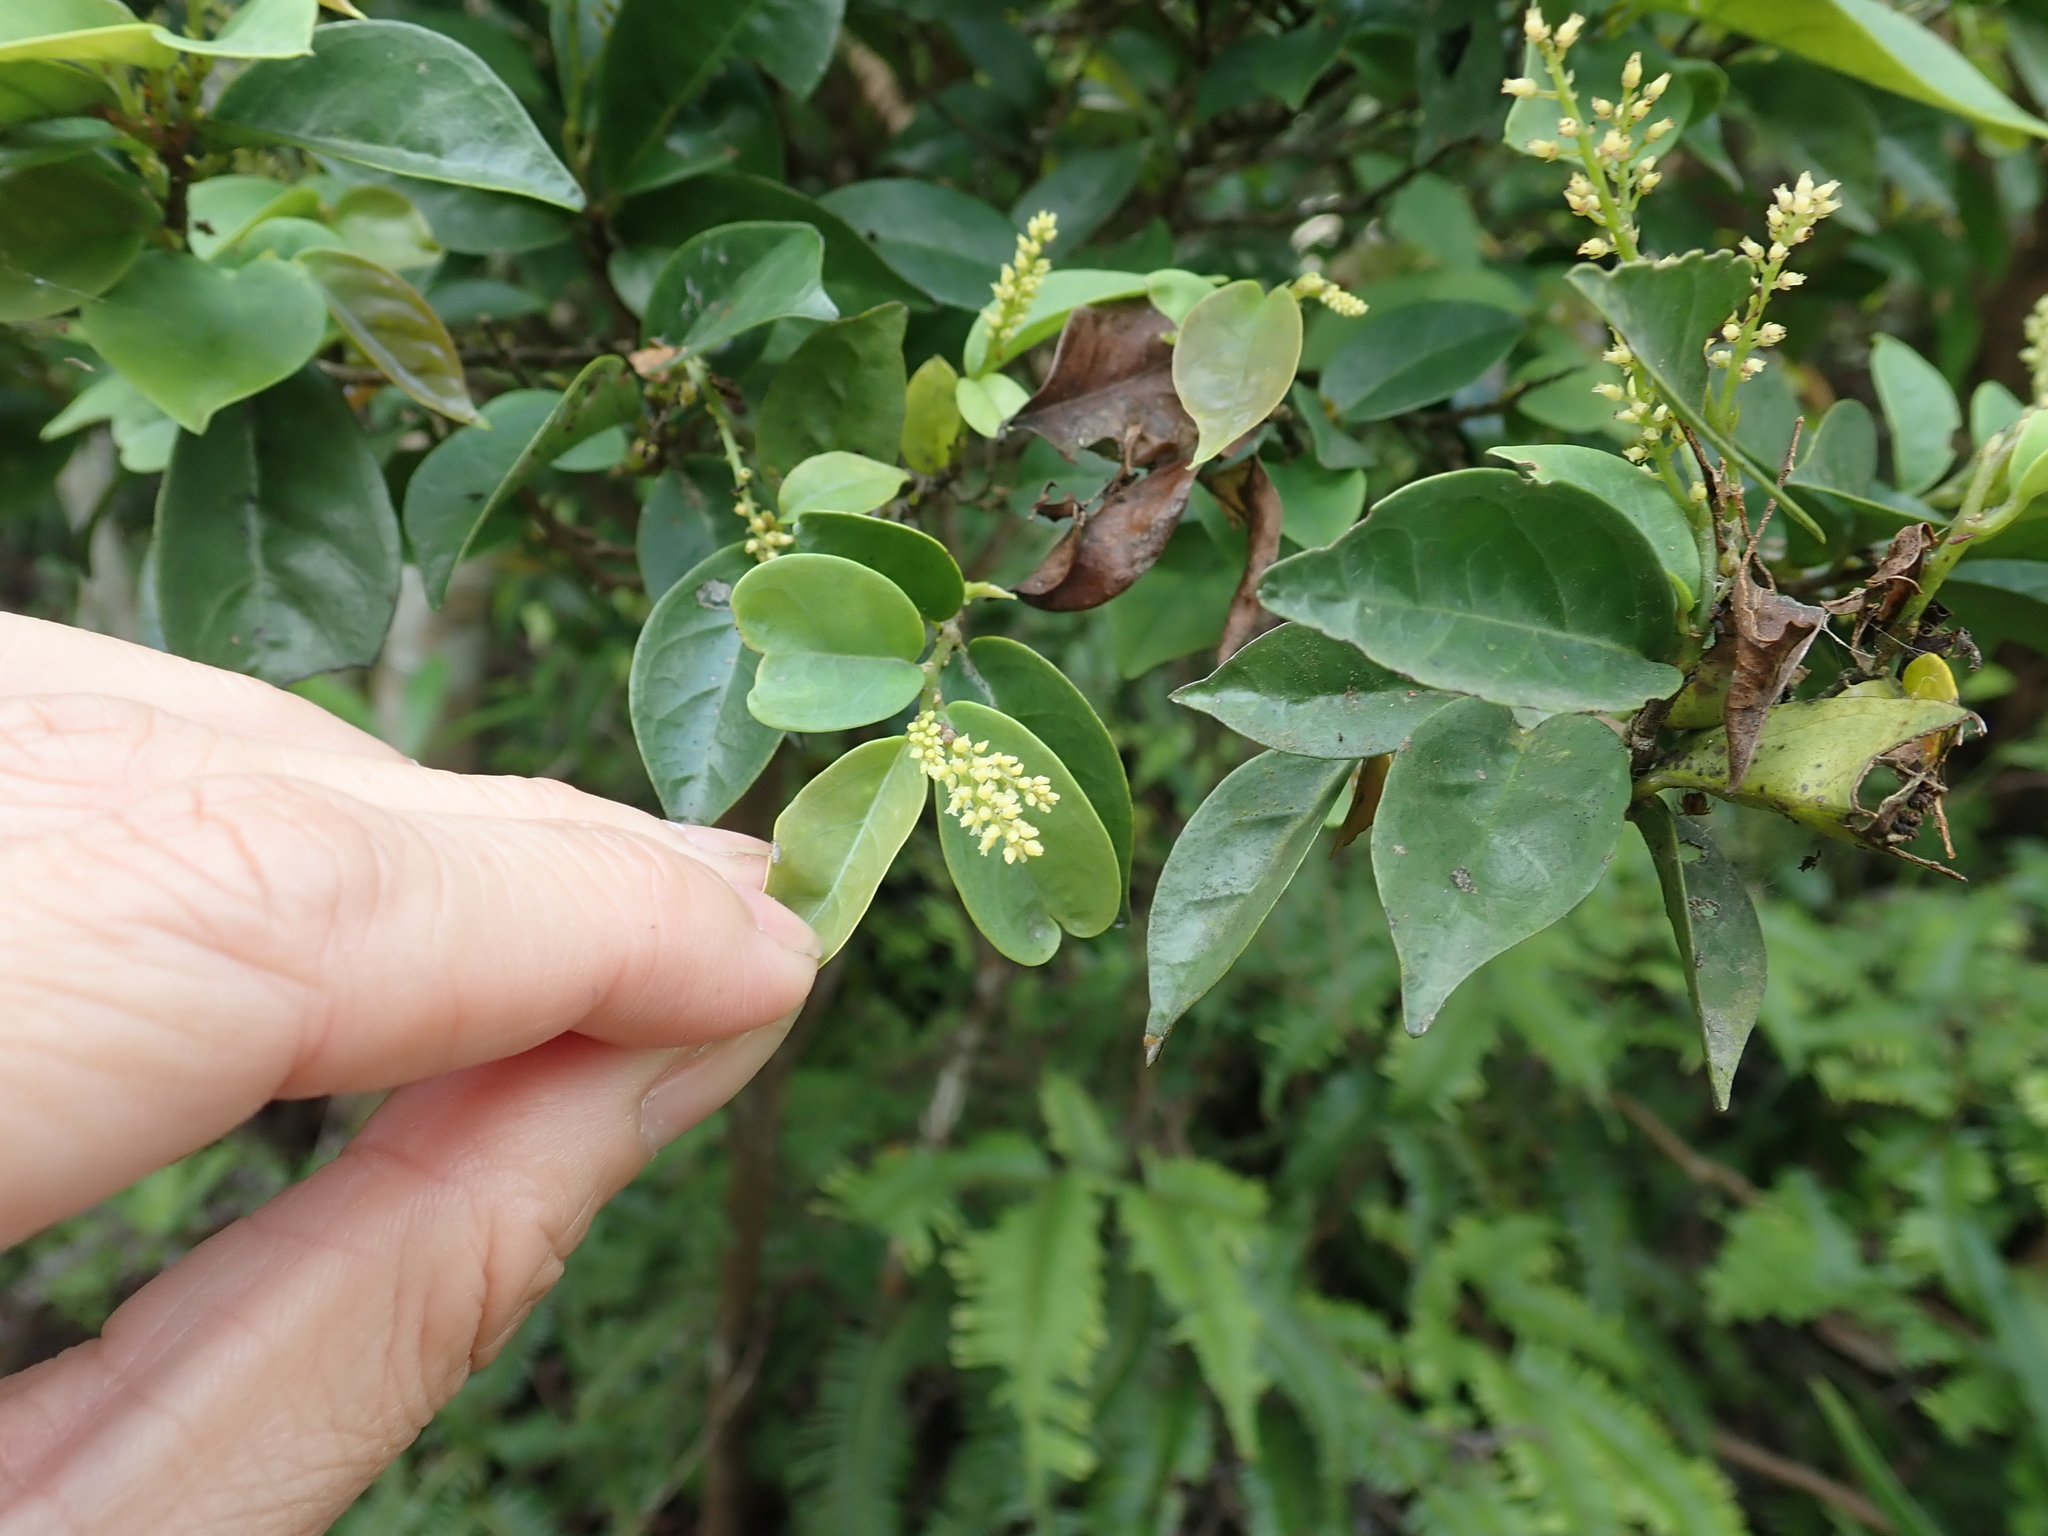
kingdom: Plantae
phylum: Tracheophyta
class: Magnoliopsida
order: Malpighiales
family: Phyllanthaceae
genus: Antidesma
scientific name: Antidesma japonicum
